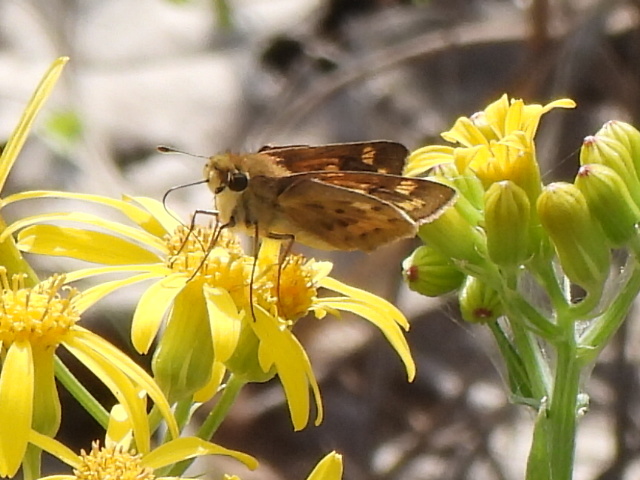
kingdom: Animalia
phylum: Arthropoda
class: Insecta
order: Lepidoptera
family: Hesperiidae
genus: Hylephila
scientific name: Hylephila phyleus
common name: Fiery skipper
